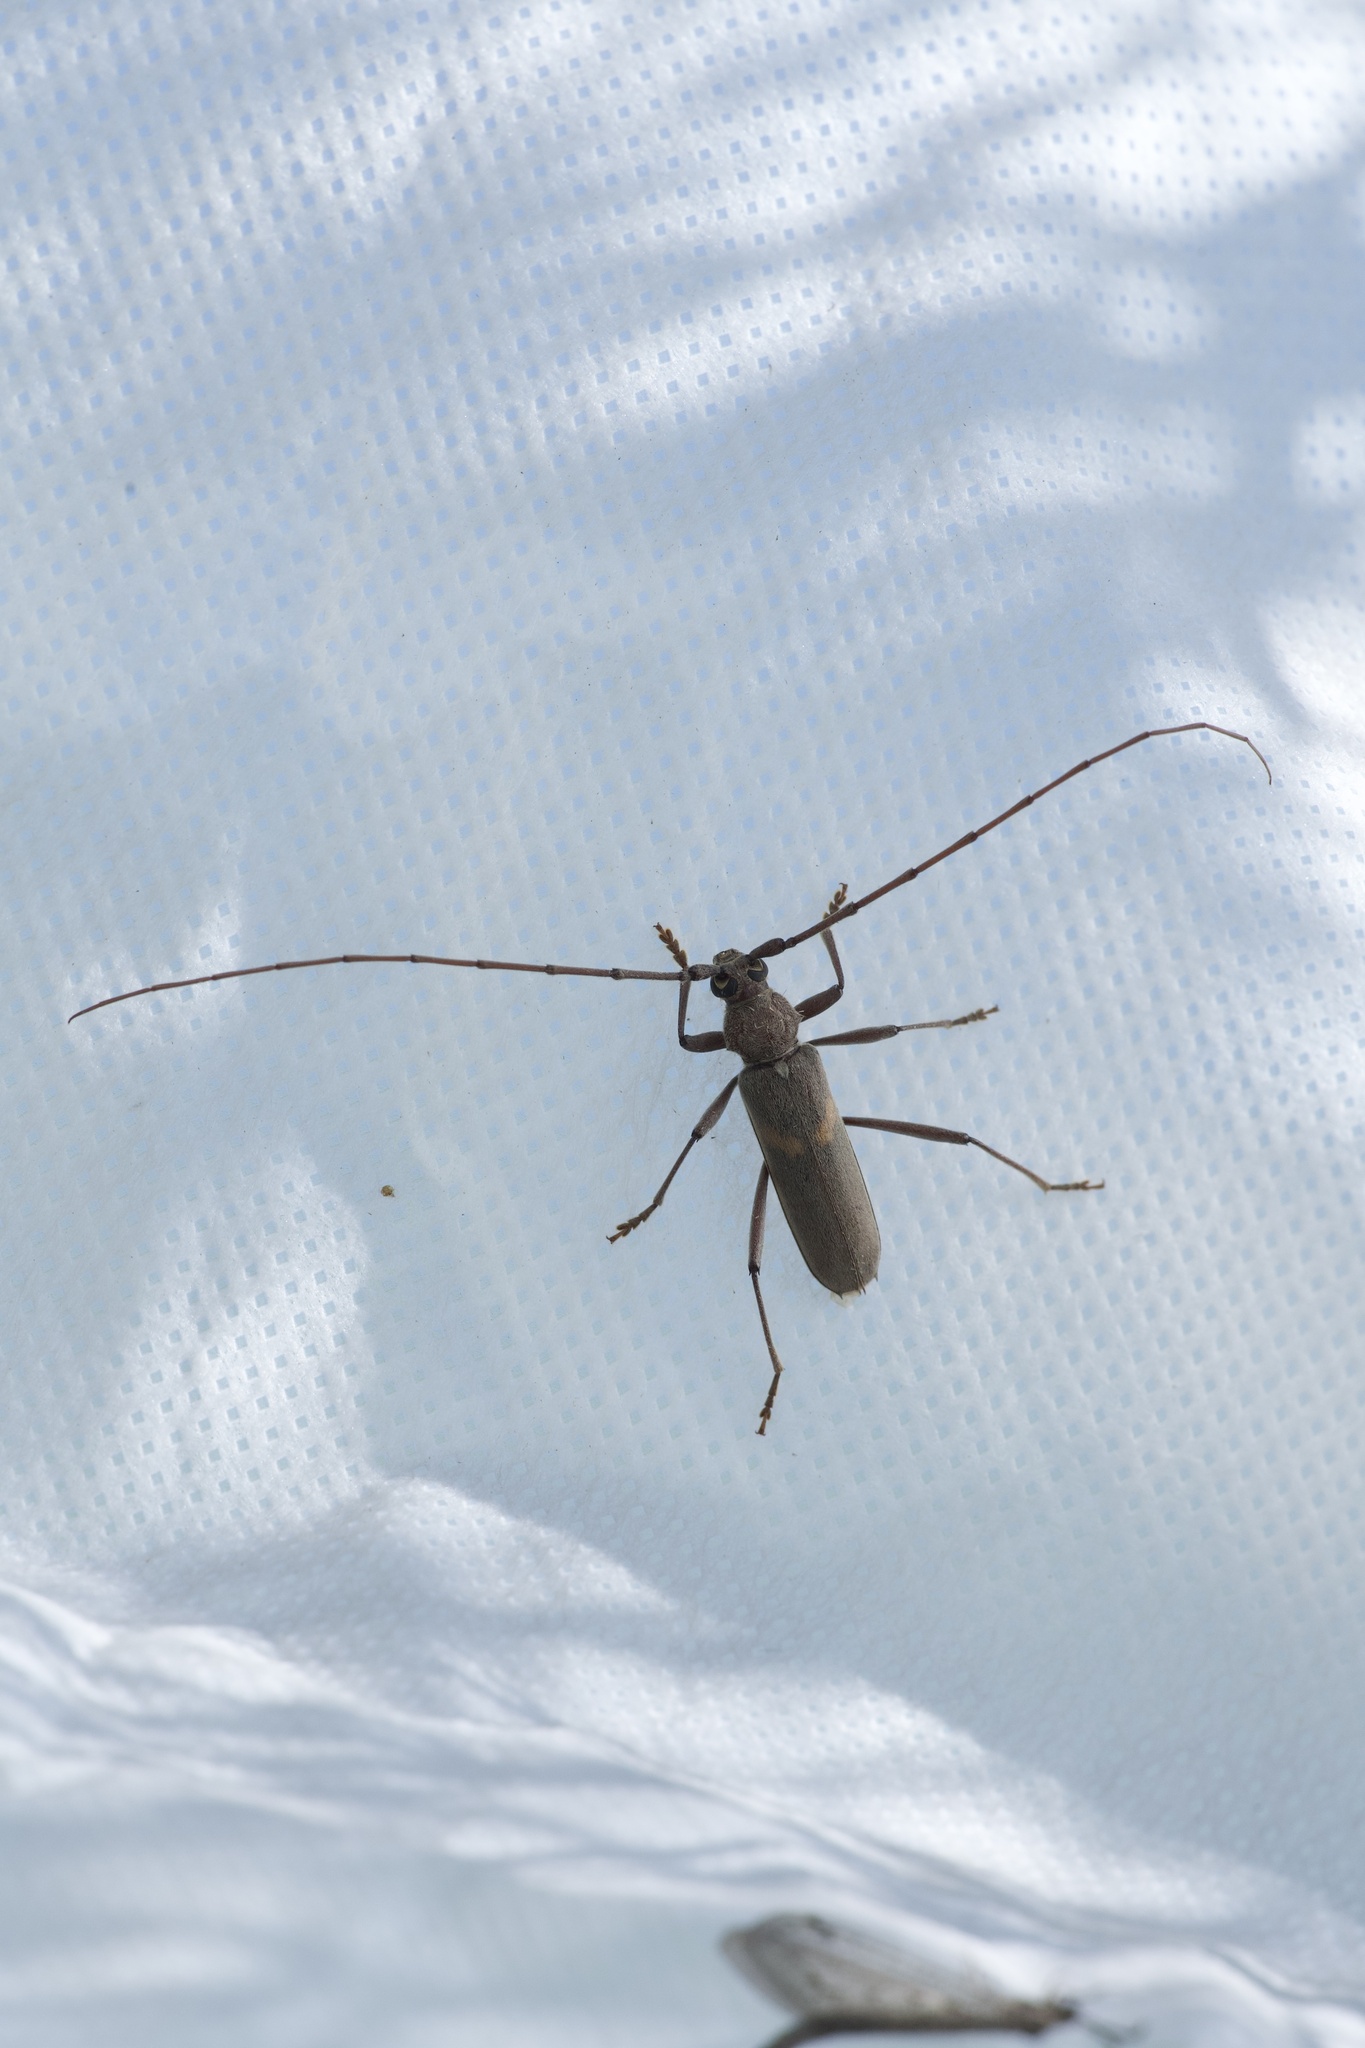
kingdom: Animalia
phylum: Arthropoda
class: Insecta
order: Coleoptera
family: Cerambycidae
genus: Knulliana
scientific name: Knulliana cincta
